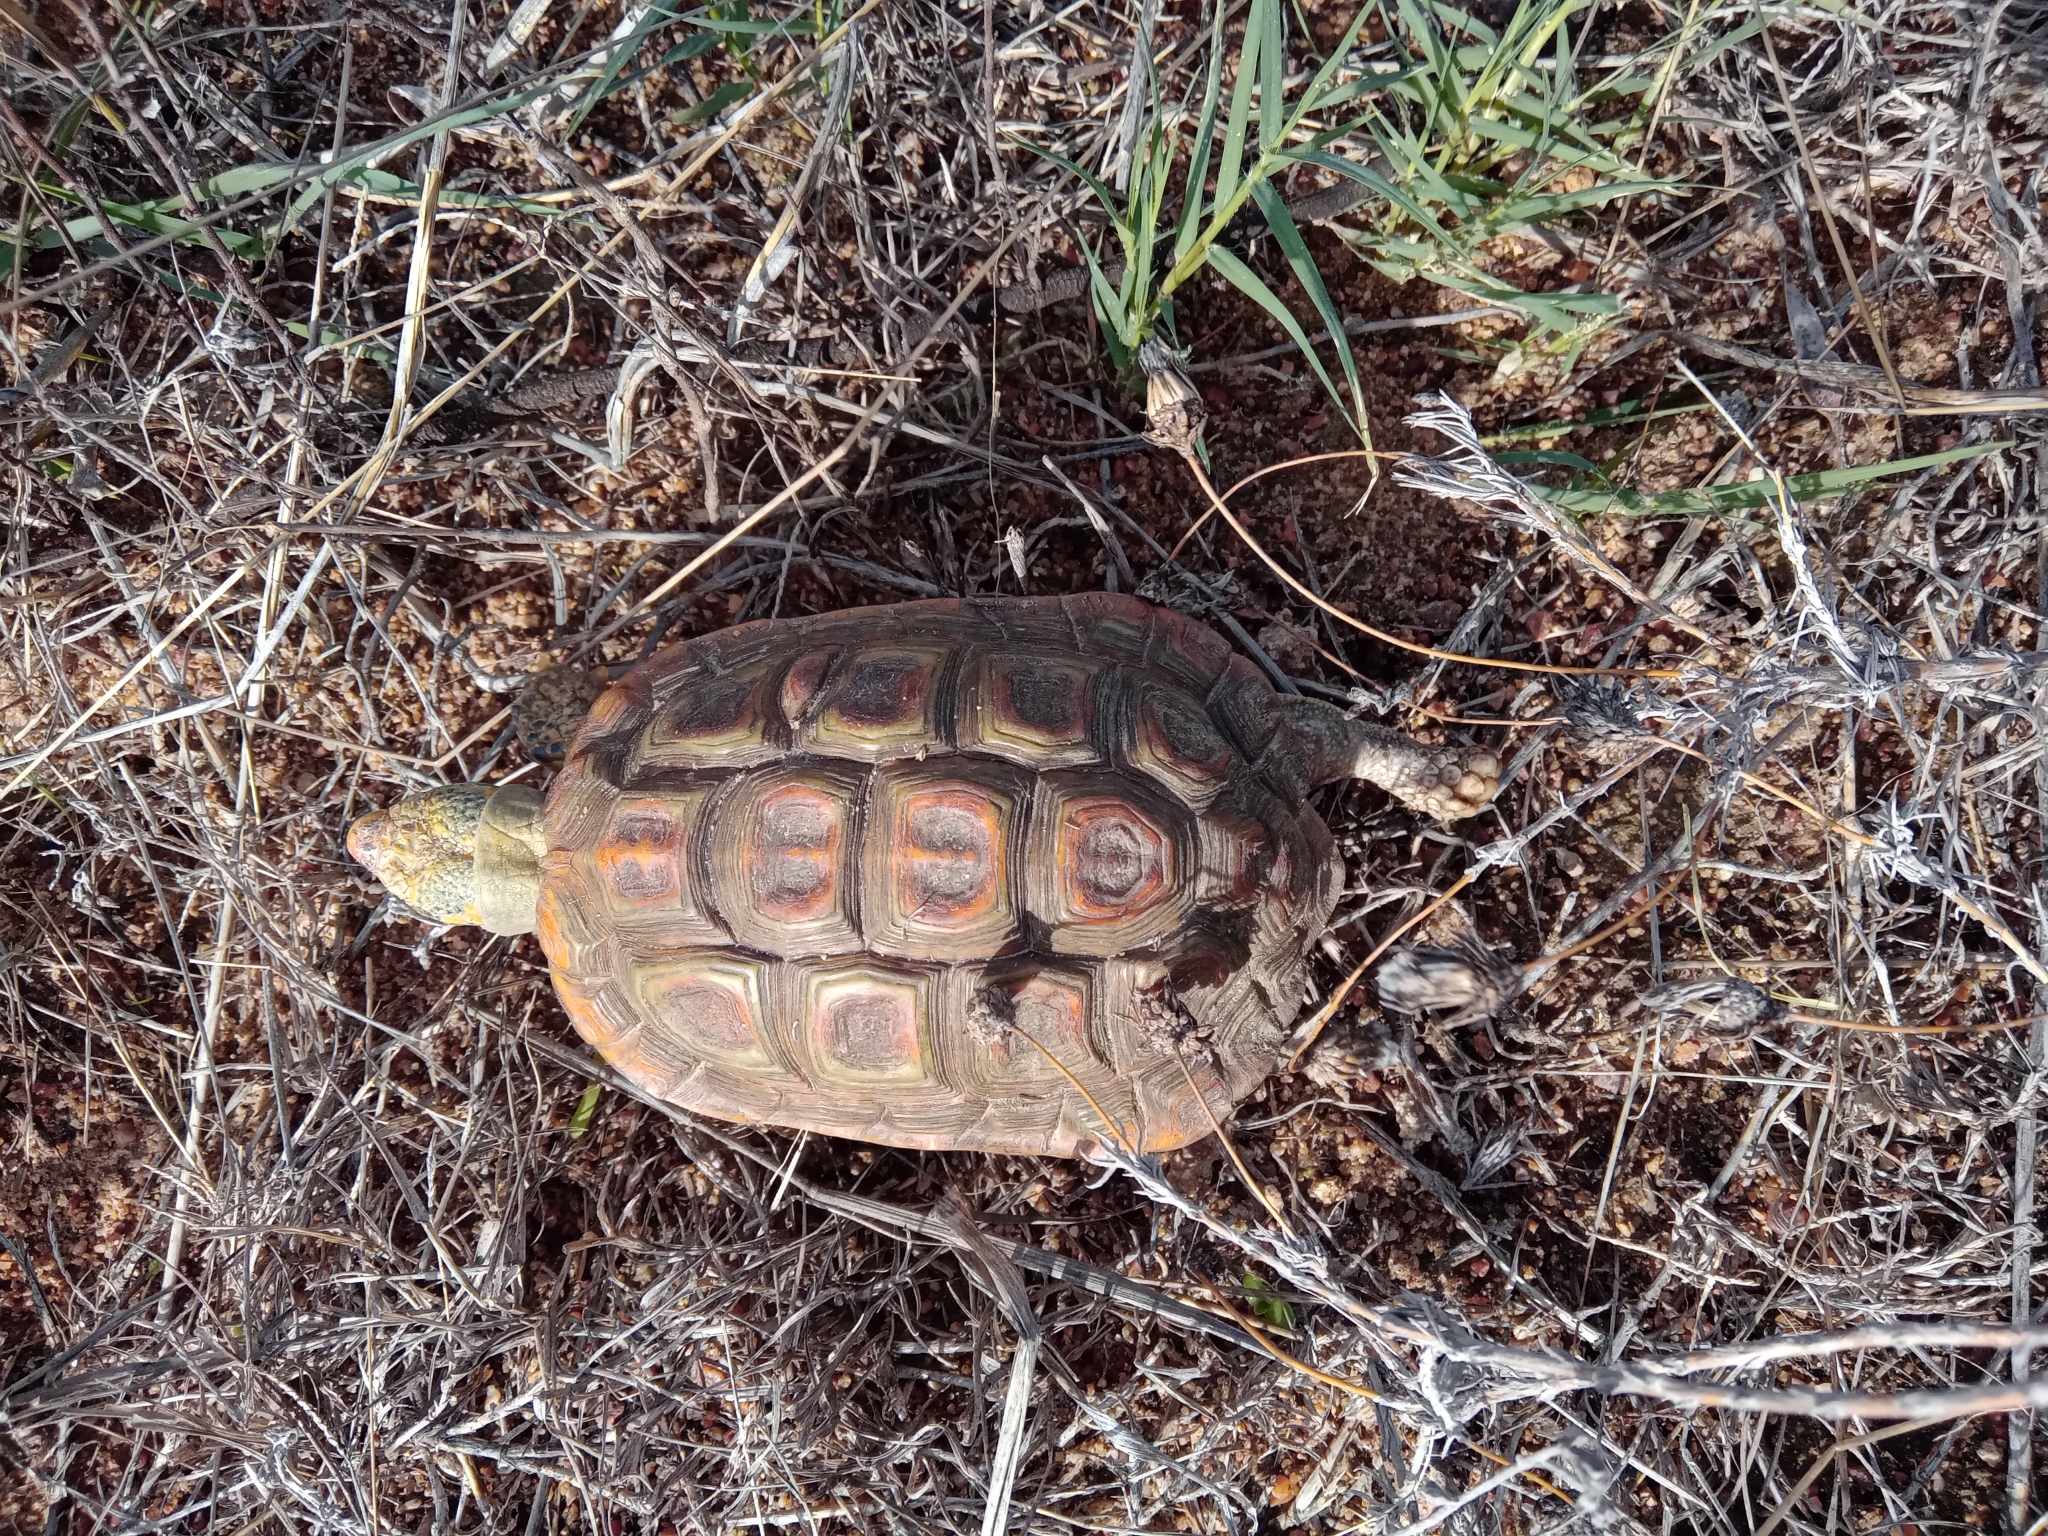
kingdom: Animalia
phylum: Chordata
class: Testudines
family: Testudinidae
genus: Homopus
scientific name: Homopus areolatus
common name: Parrot-beaked tortoise
